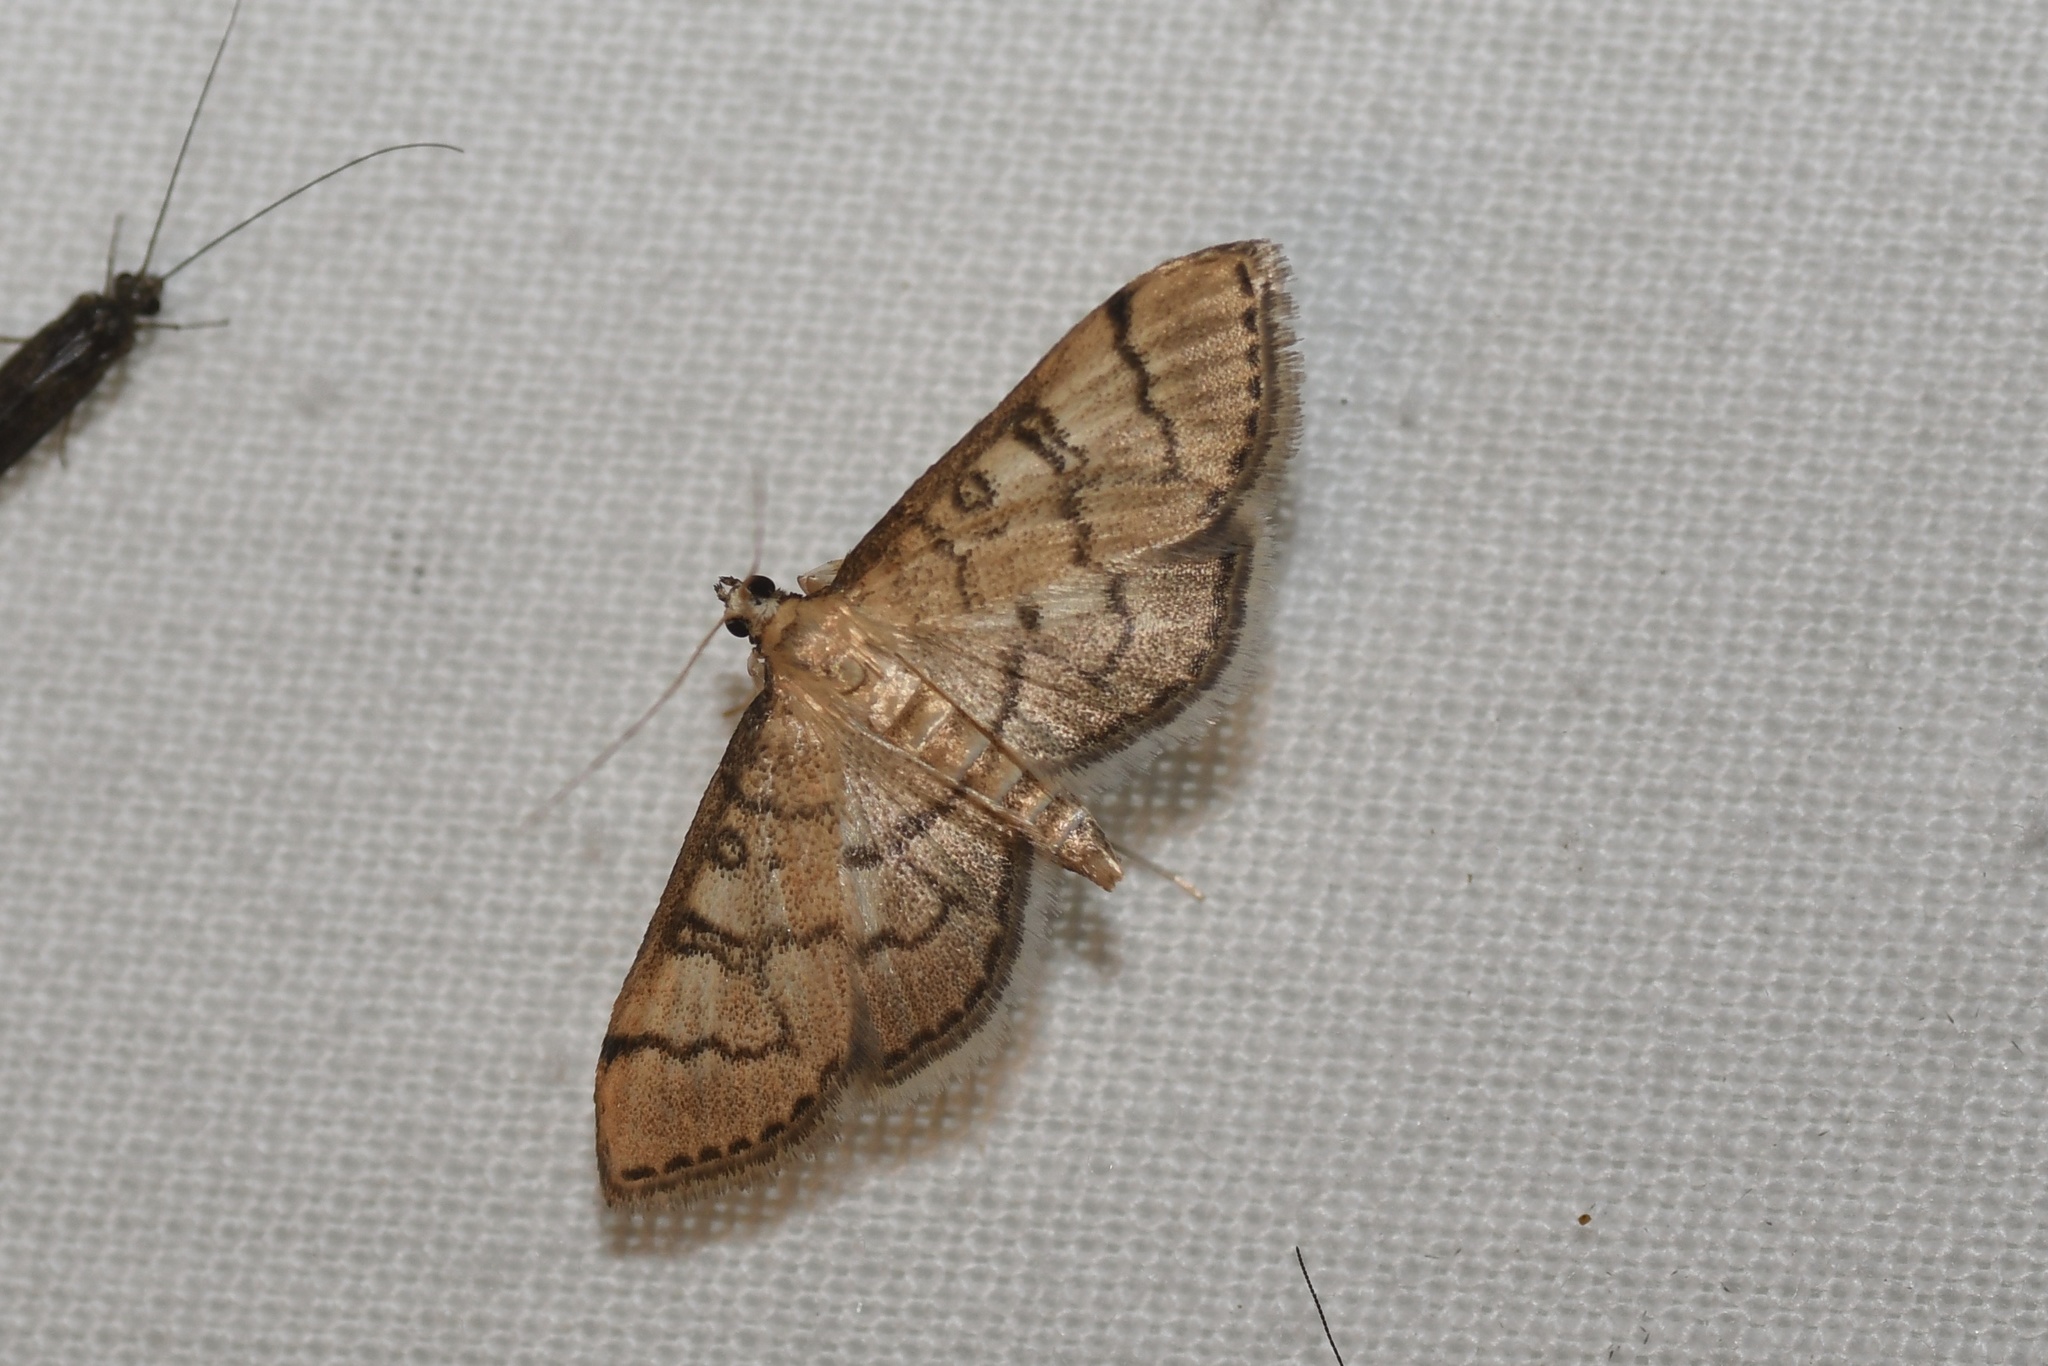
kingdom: Animalia
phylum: Arthropoda
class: Insecta
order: Lepidoptera
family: Crambidae
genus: Lamprosema
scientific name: Lamprosema Blepharomastix ranalis
